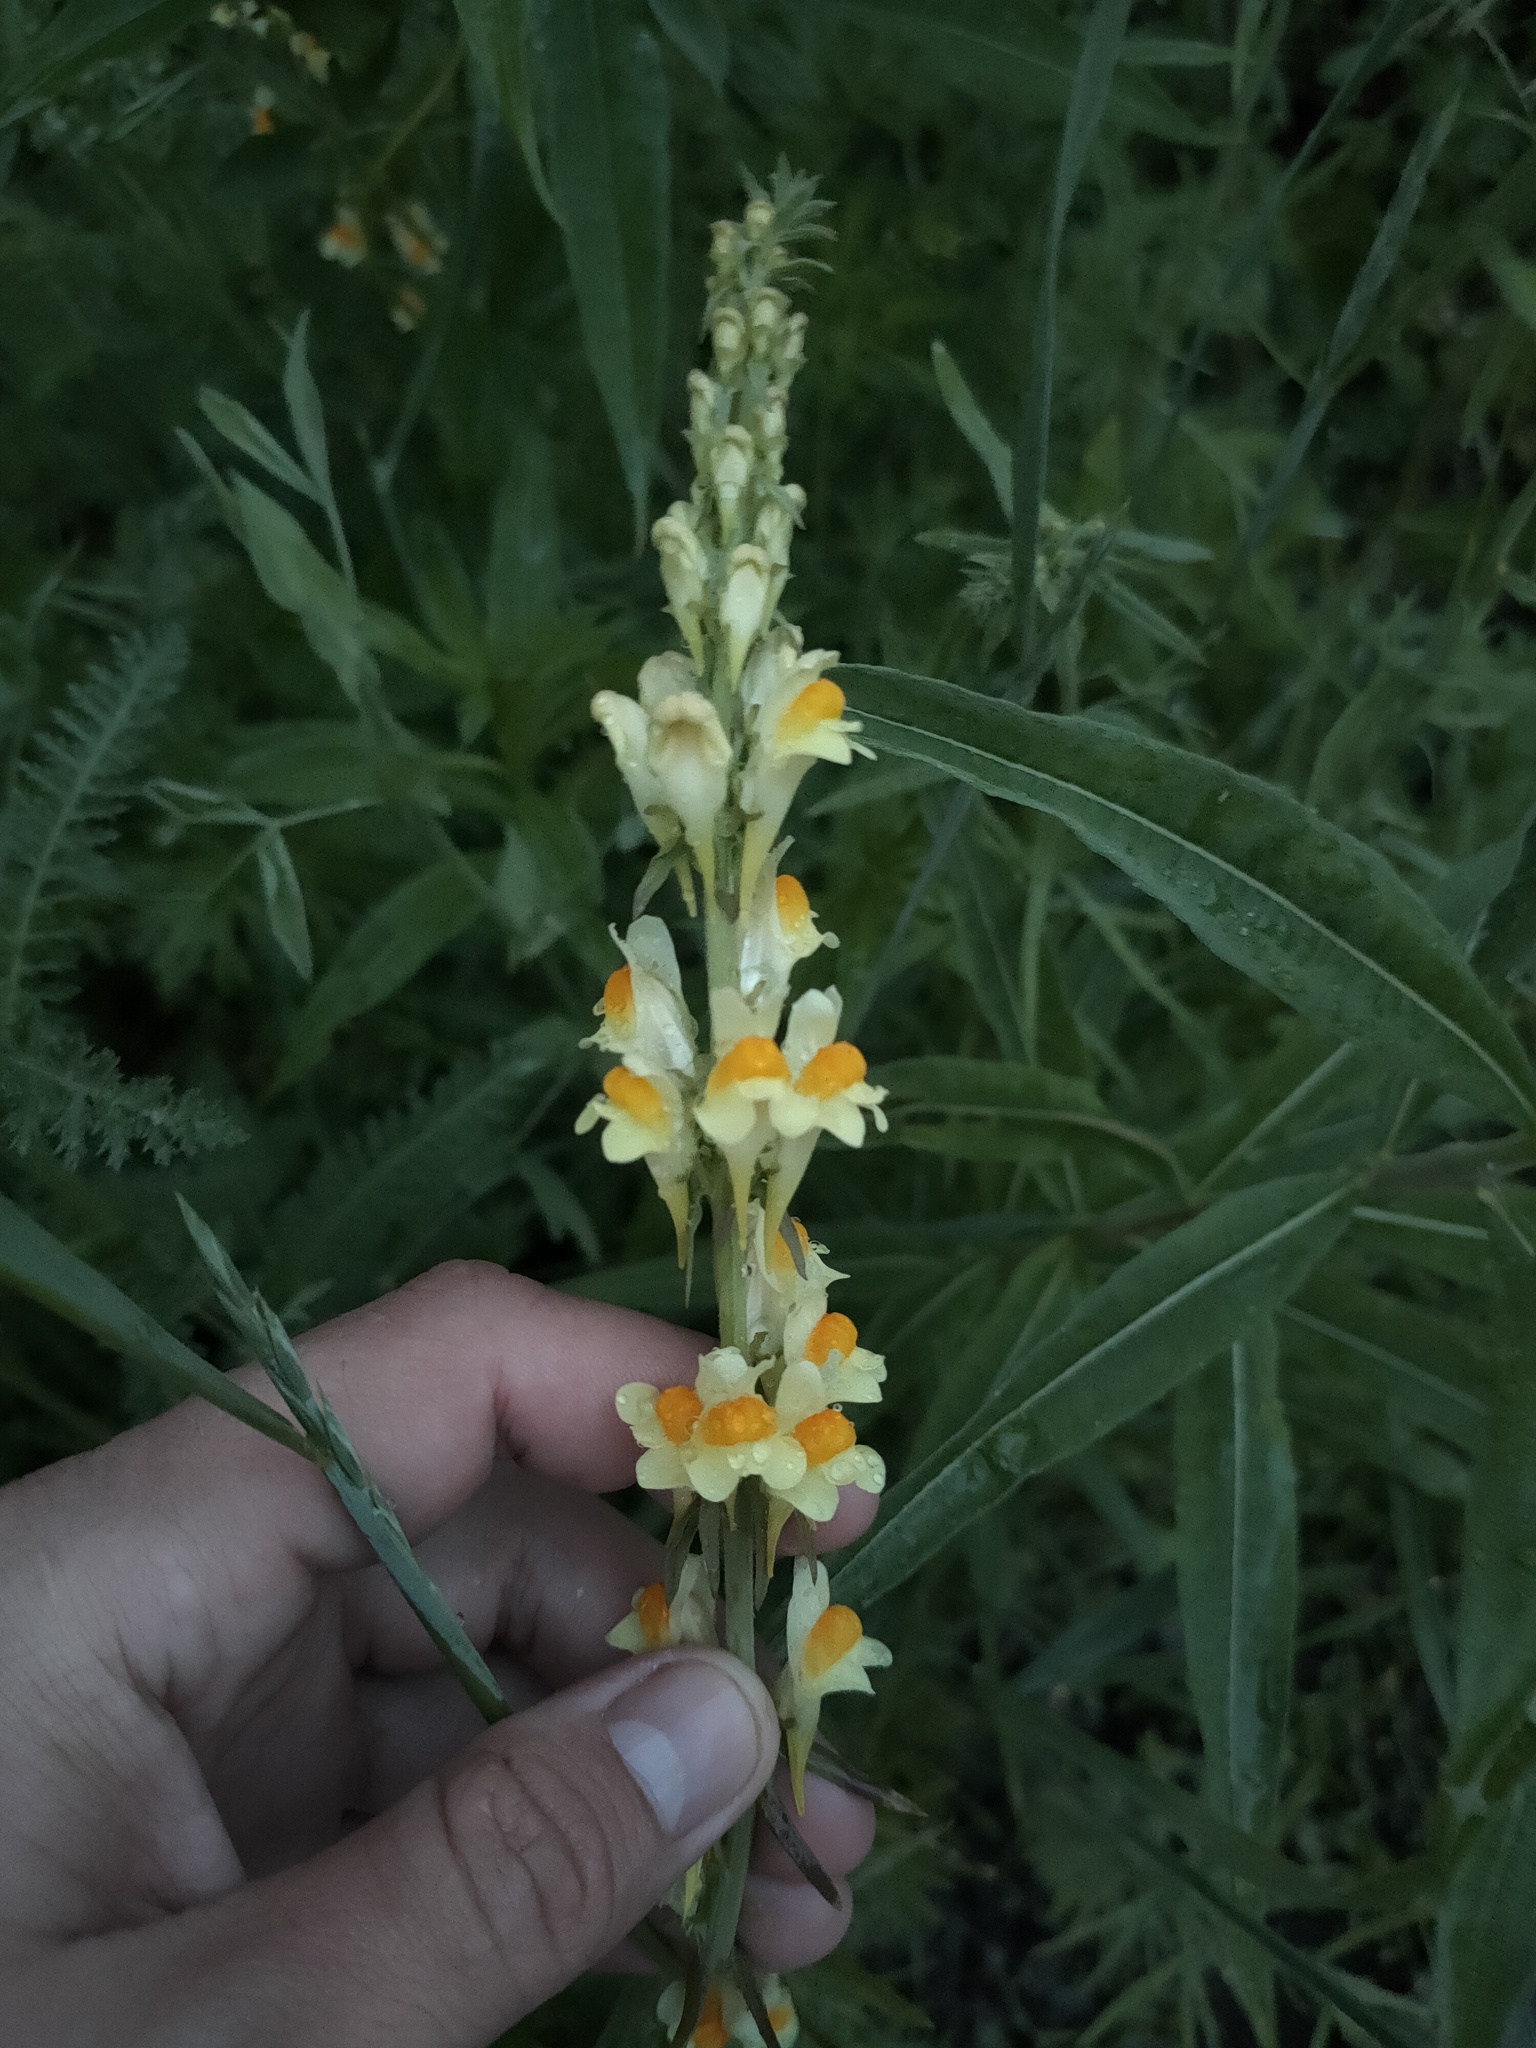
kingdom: Plantae
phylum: Tracheophyta
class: Magnoliopsida
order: Lamiales
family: Plantaginaceae
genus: Linaria
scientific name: Linaria vulgaris
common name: Butter and eggs
